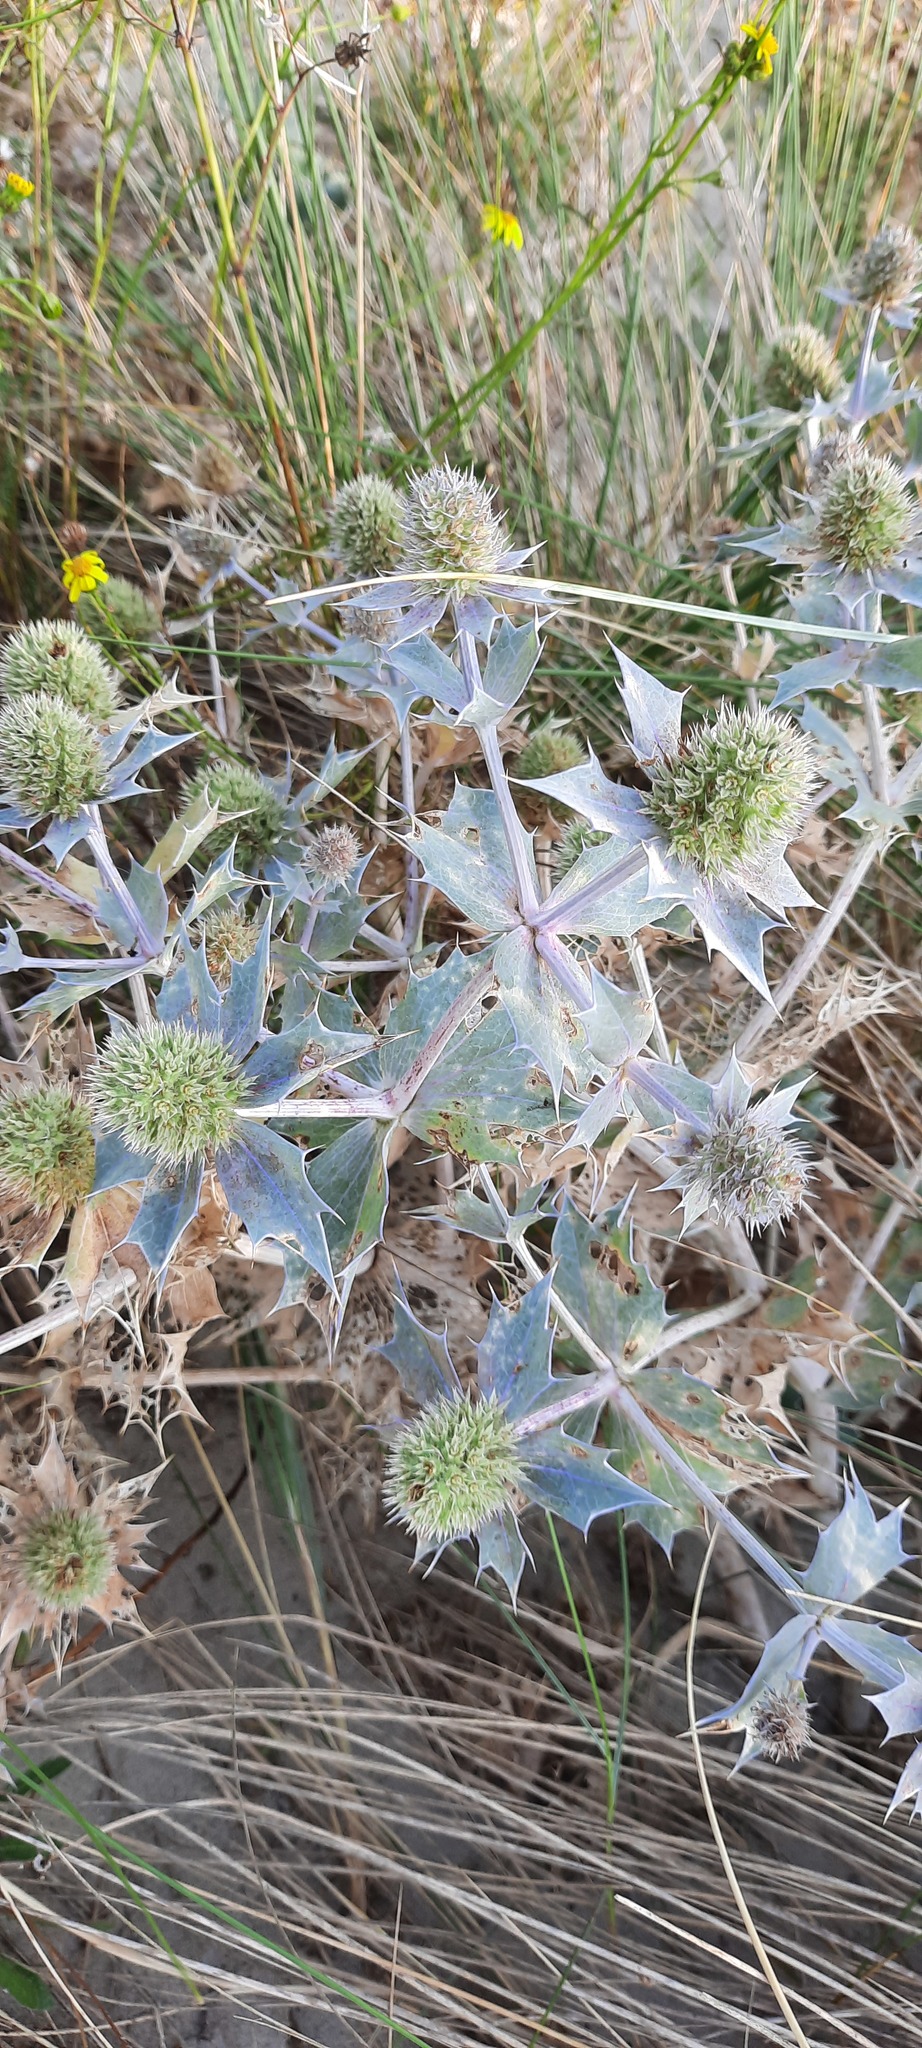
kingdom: Plantae
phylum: Tracheophyta
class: Magnoliopsida
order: Apiales
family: Apiaceae
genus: Eryngium
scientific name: Eryngium maritimum
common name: Sea-holly
